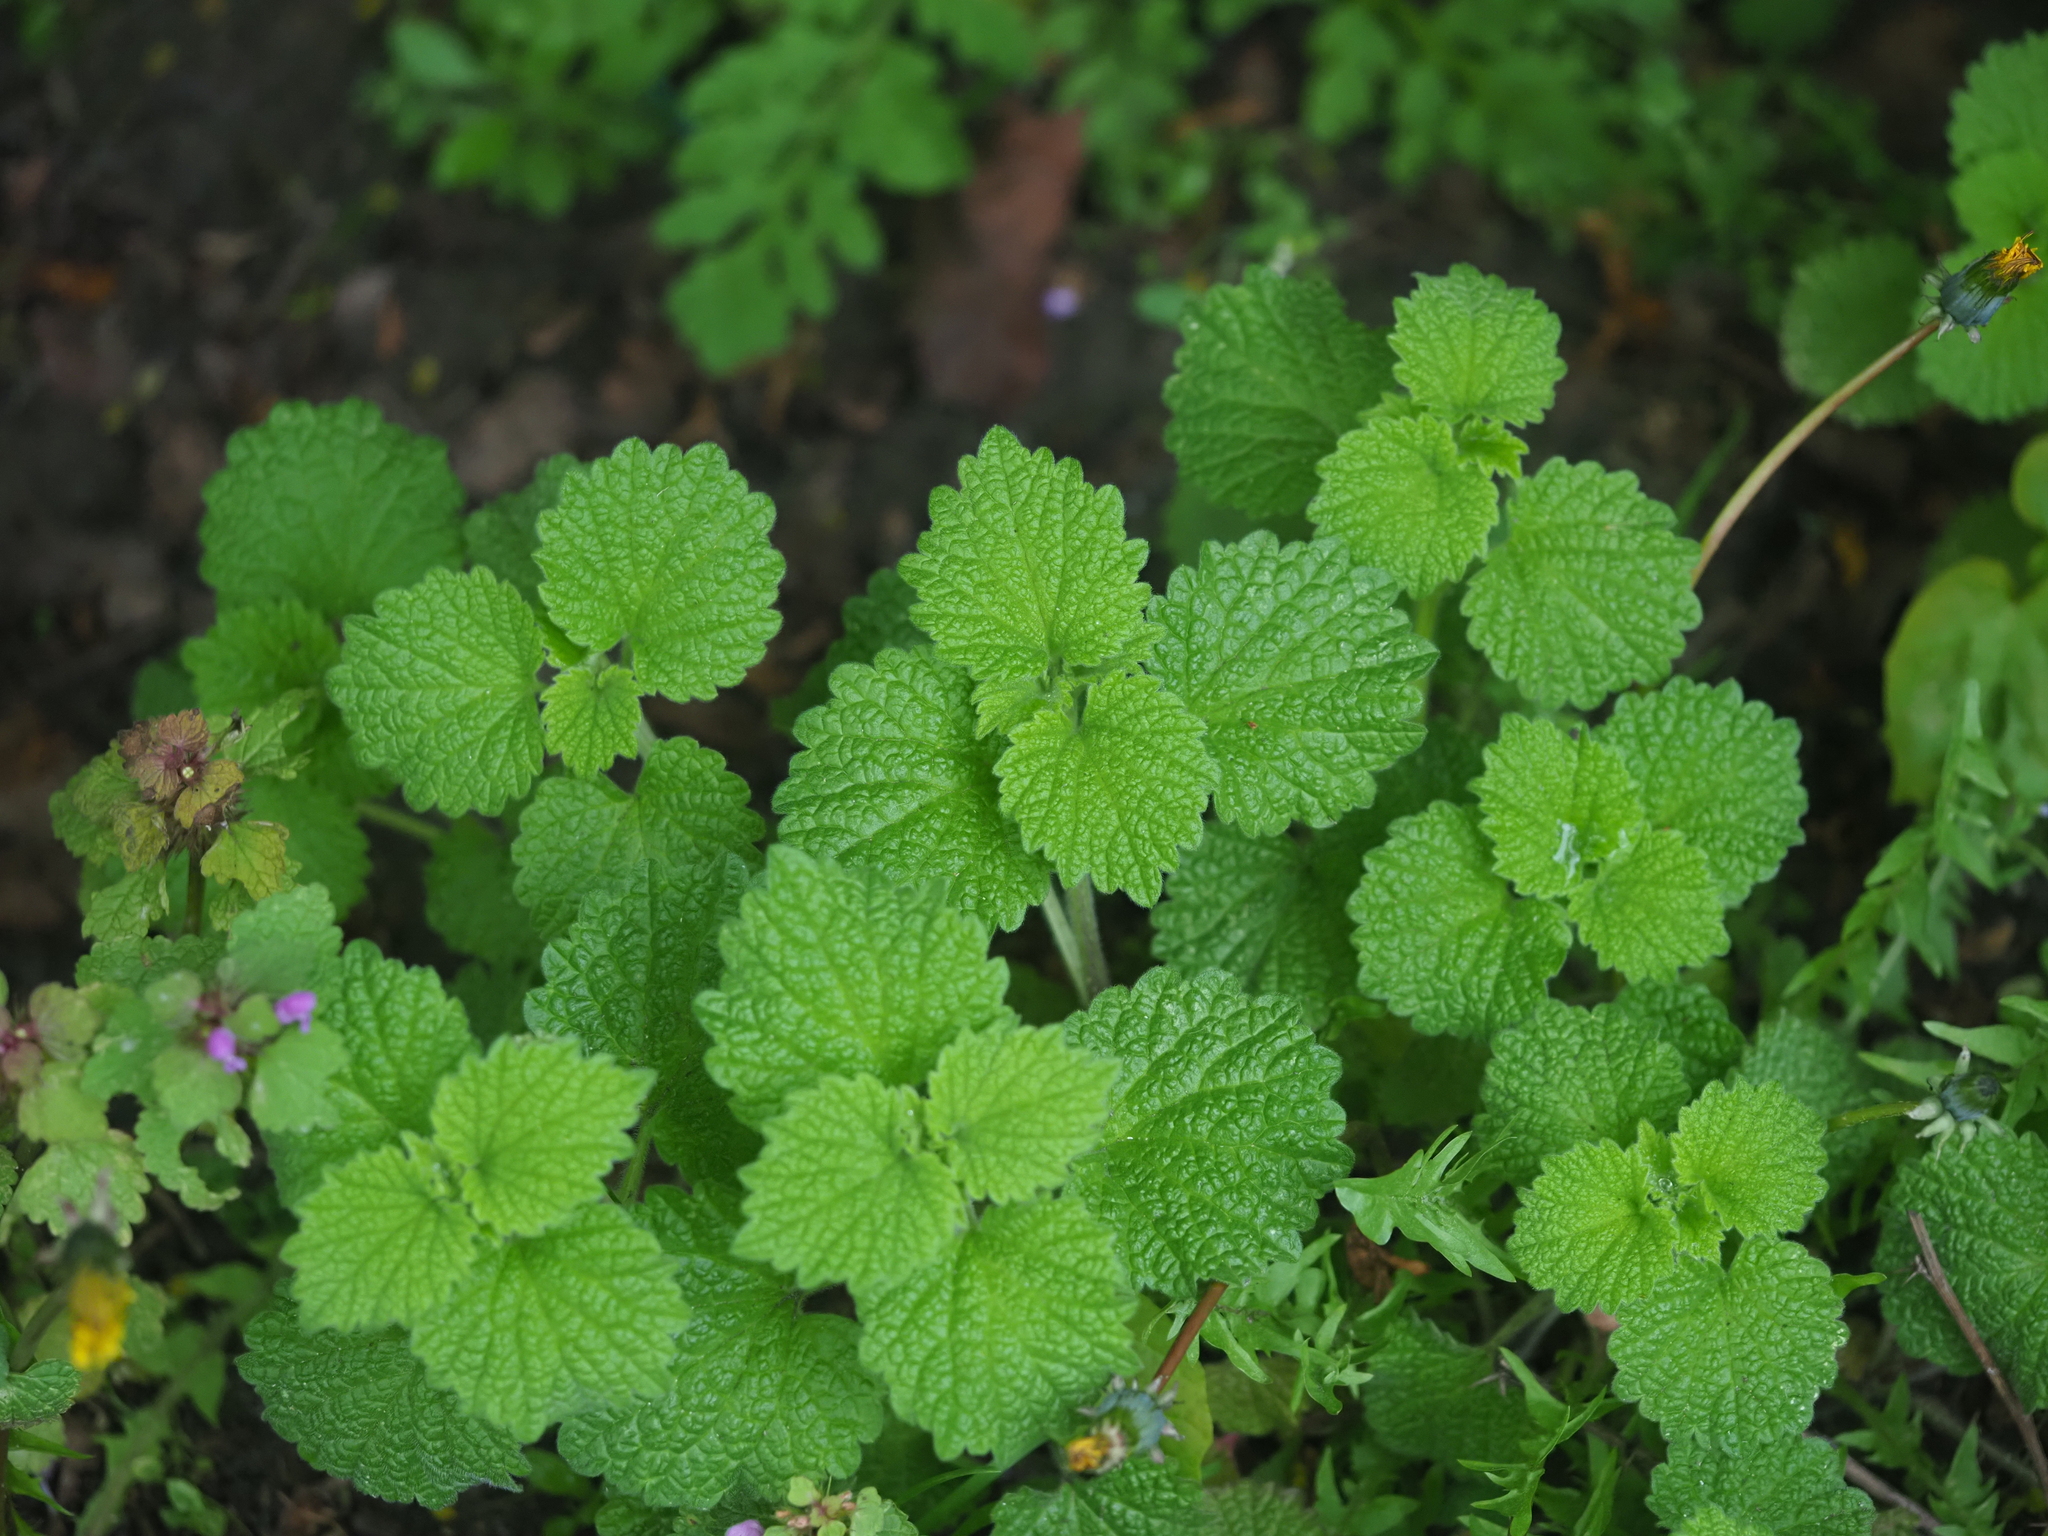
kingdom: Plantae
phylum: Tracheophyta
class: Magnoliopsida
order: Lamiales
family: Lamiaceae
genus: Ballota
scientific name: Ballota nigra
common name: Black horehound
